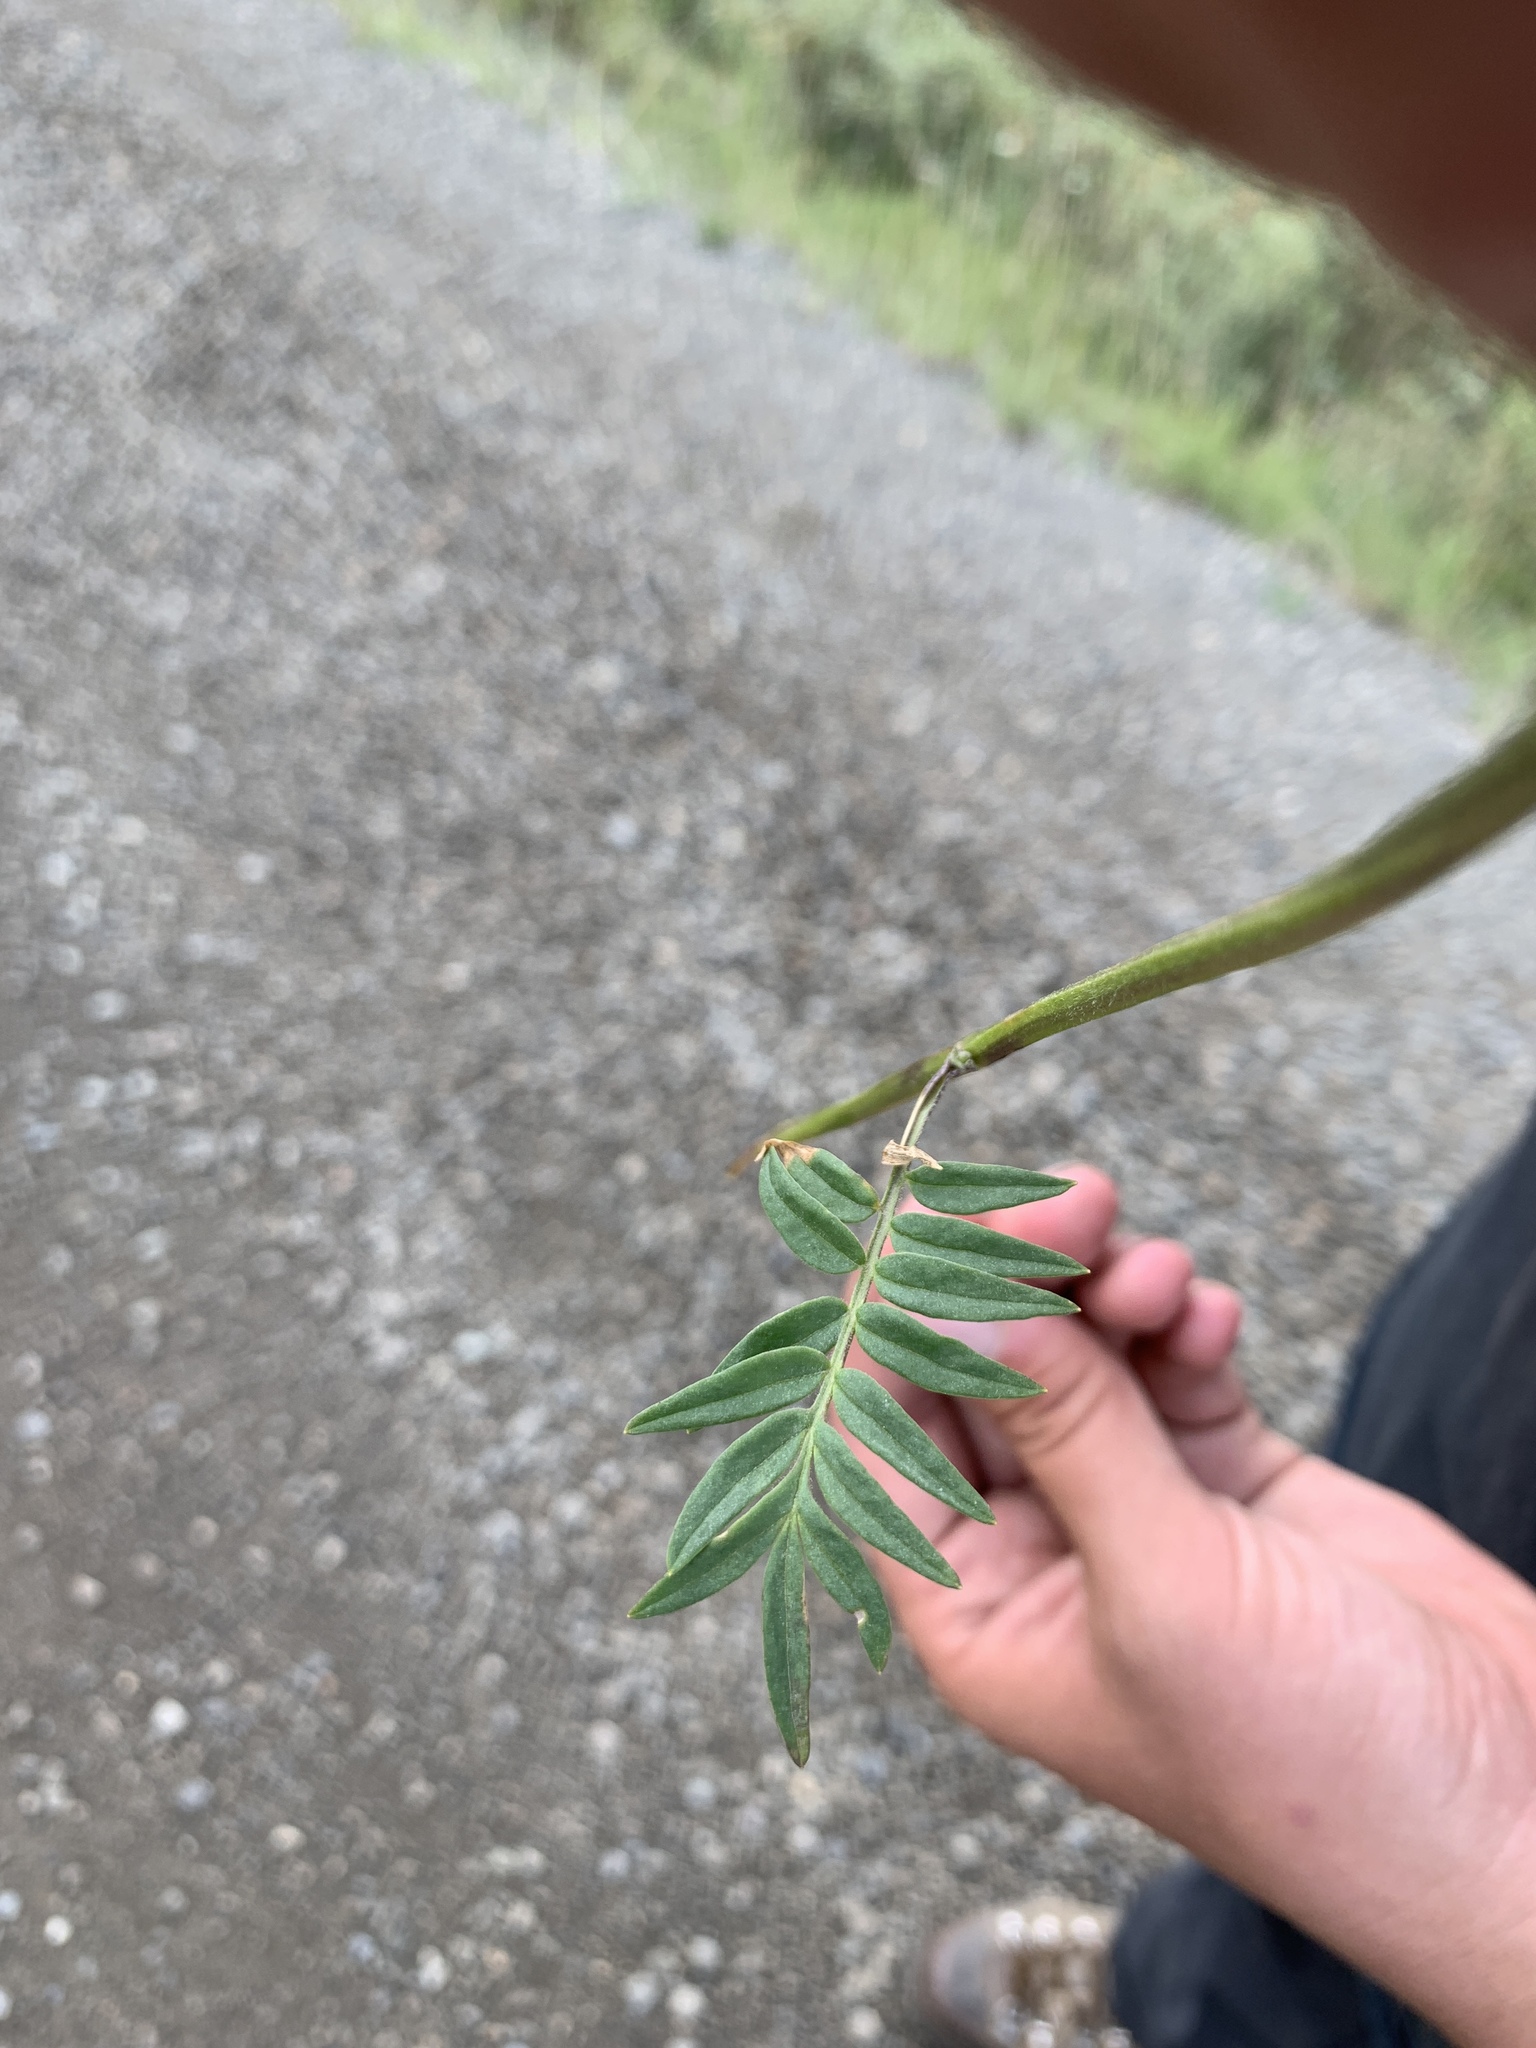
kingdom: Plantae
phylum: Tracheophyta
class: Magnoliopsida
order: Ericales
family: Polemoniaceae
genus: Polemonium
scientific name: Polemonium acutiflorum
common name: Tall jacob's-ladder
